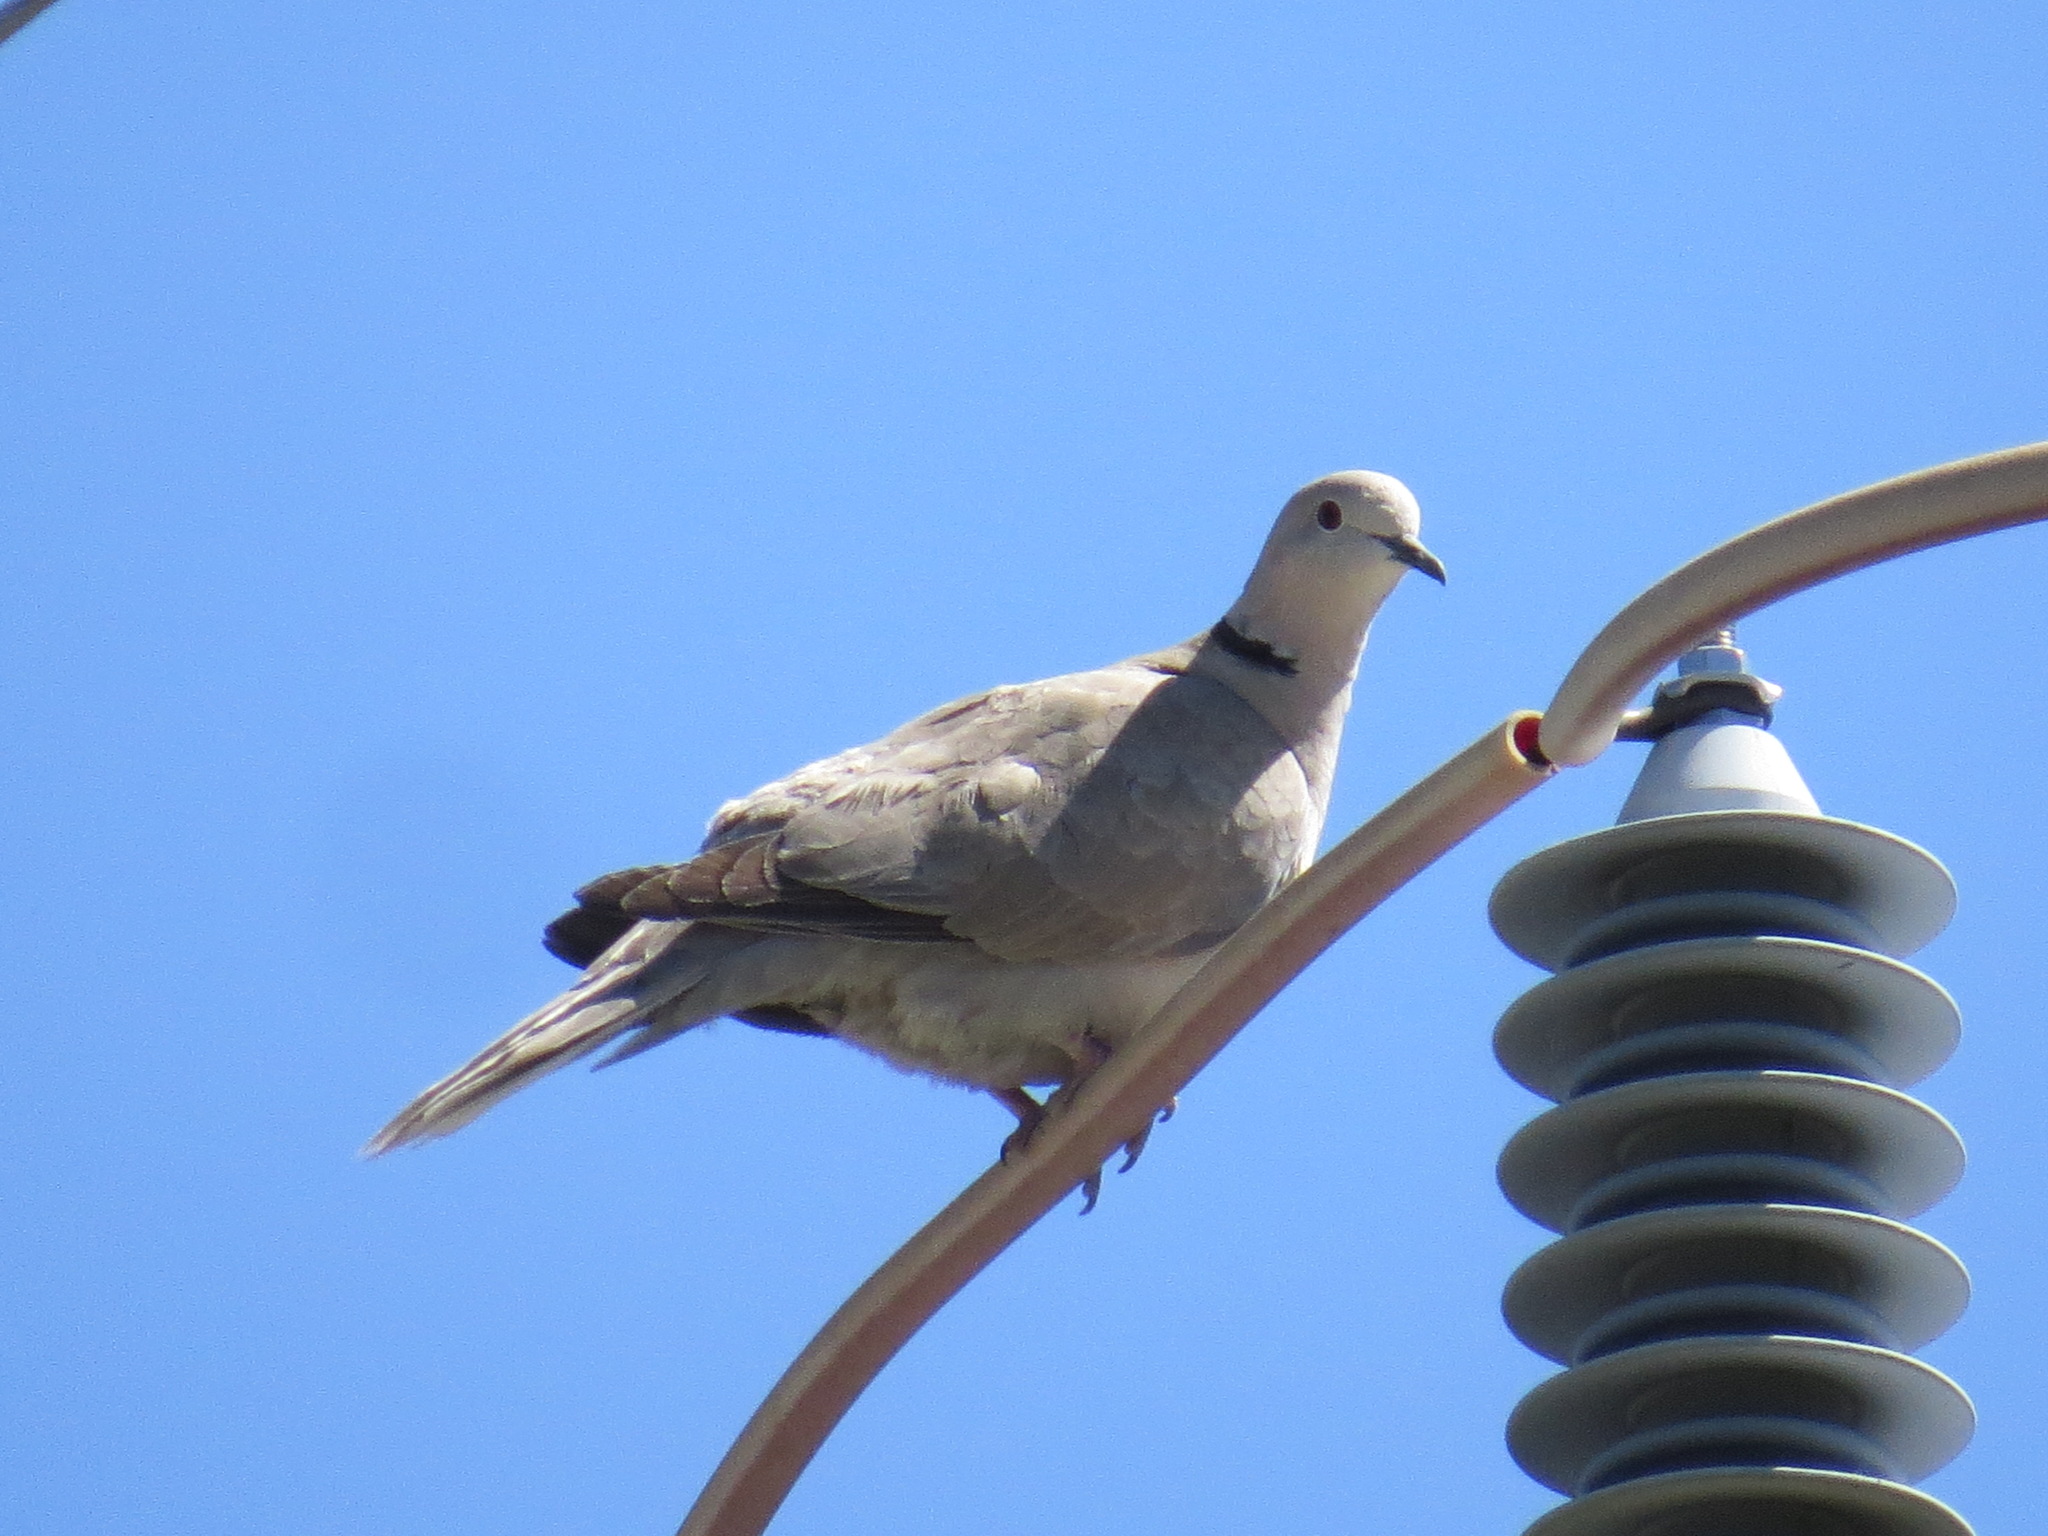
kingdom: Animalia
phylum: Chordata
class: Aves
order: Columbiformes
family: Columbidae
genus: Streptopelia
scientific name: Streptopelia decaocto
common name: Eurasian collared dove
